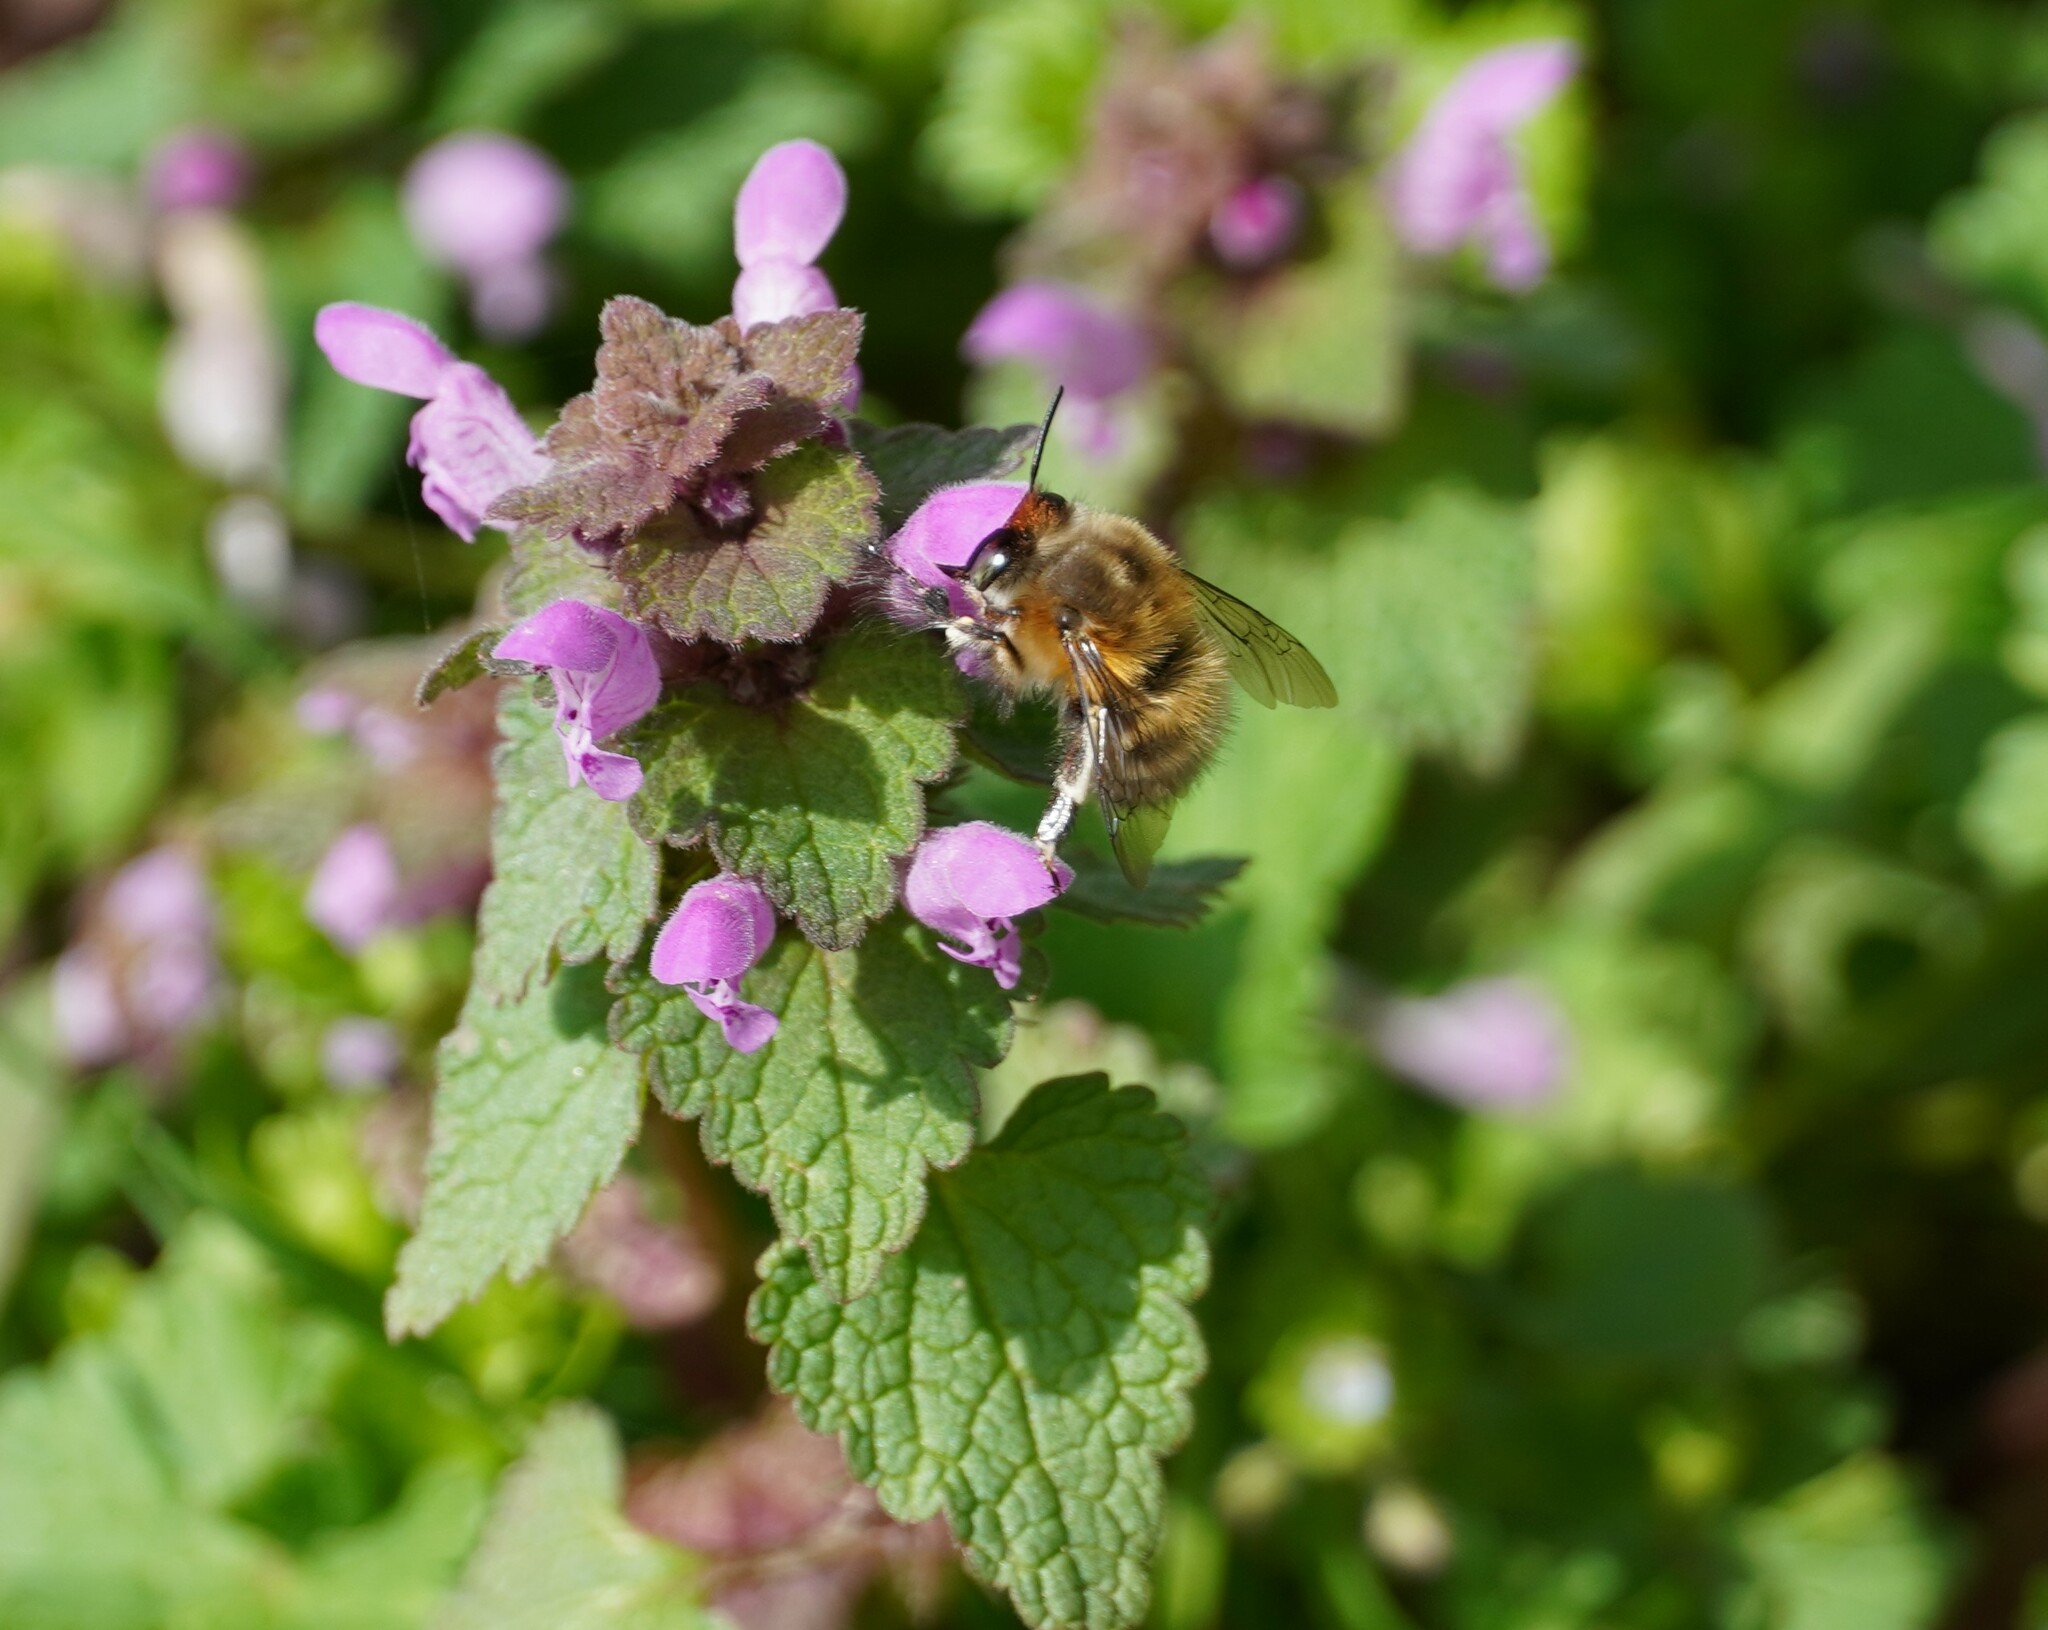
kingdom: Animalia
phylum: Arthropoda
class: Insecta
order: Hymenoptera
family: Apidae
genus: Anthophora
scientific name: Anthophora plumipes
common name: Hairy-footed flower bee
